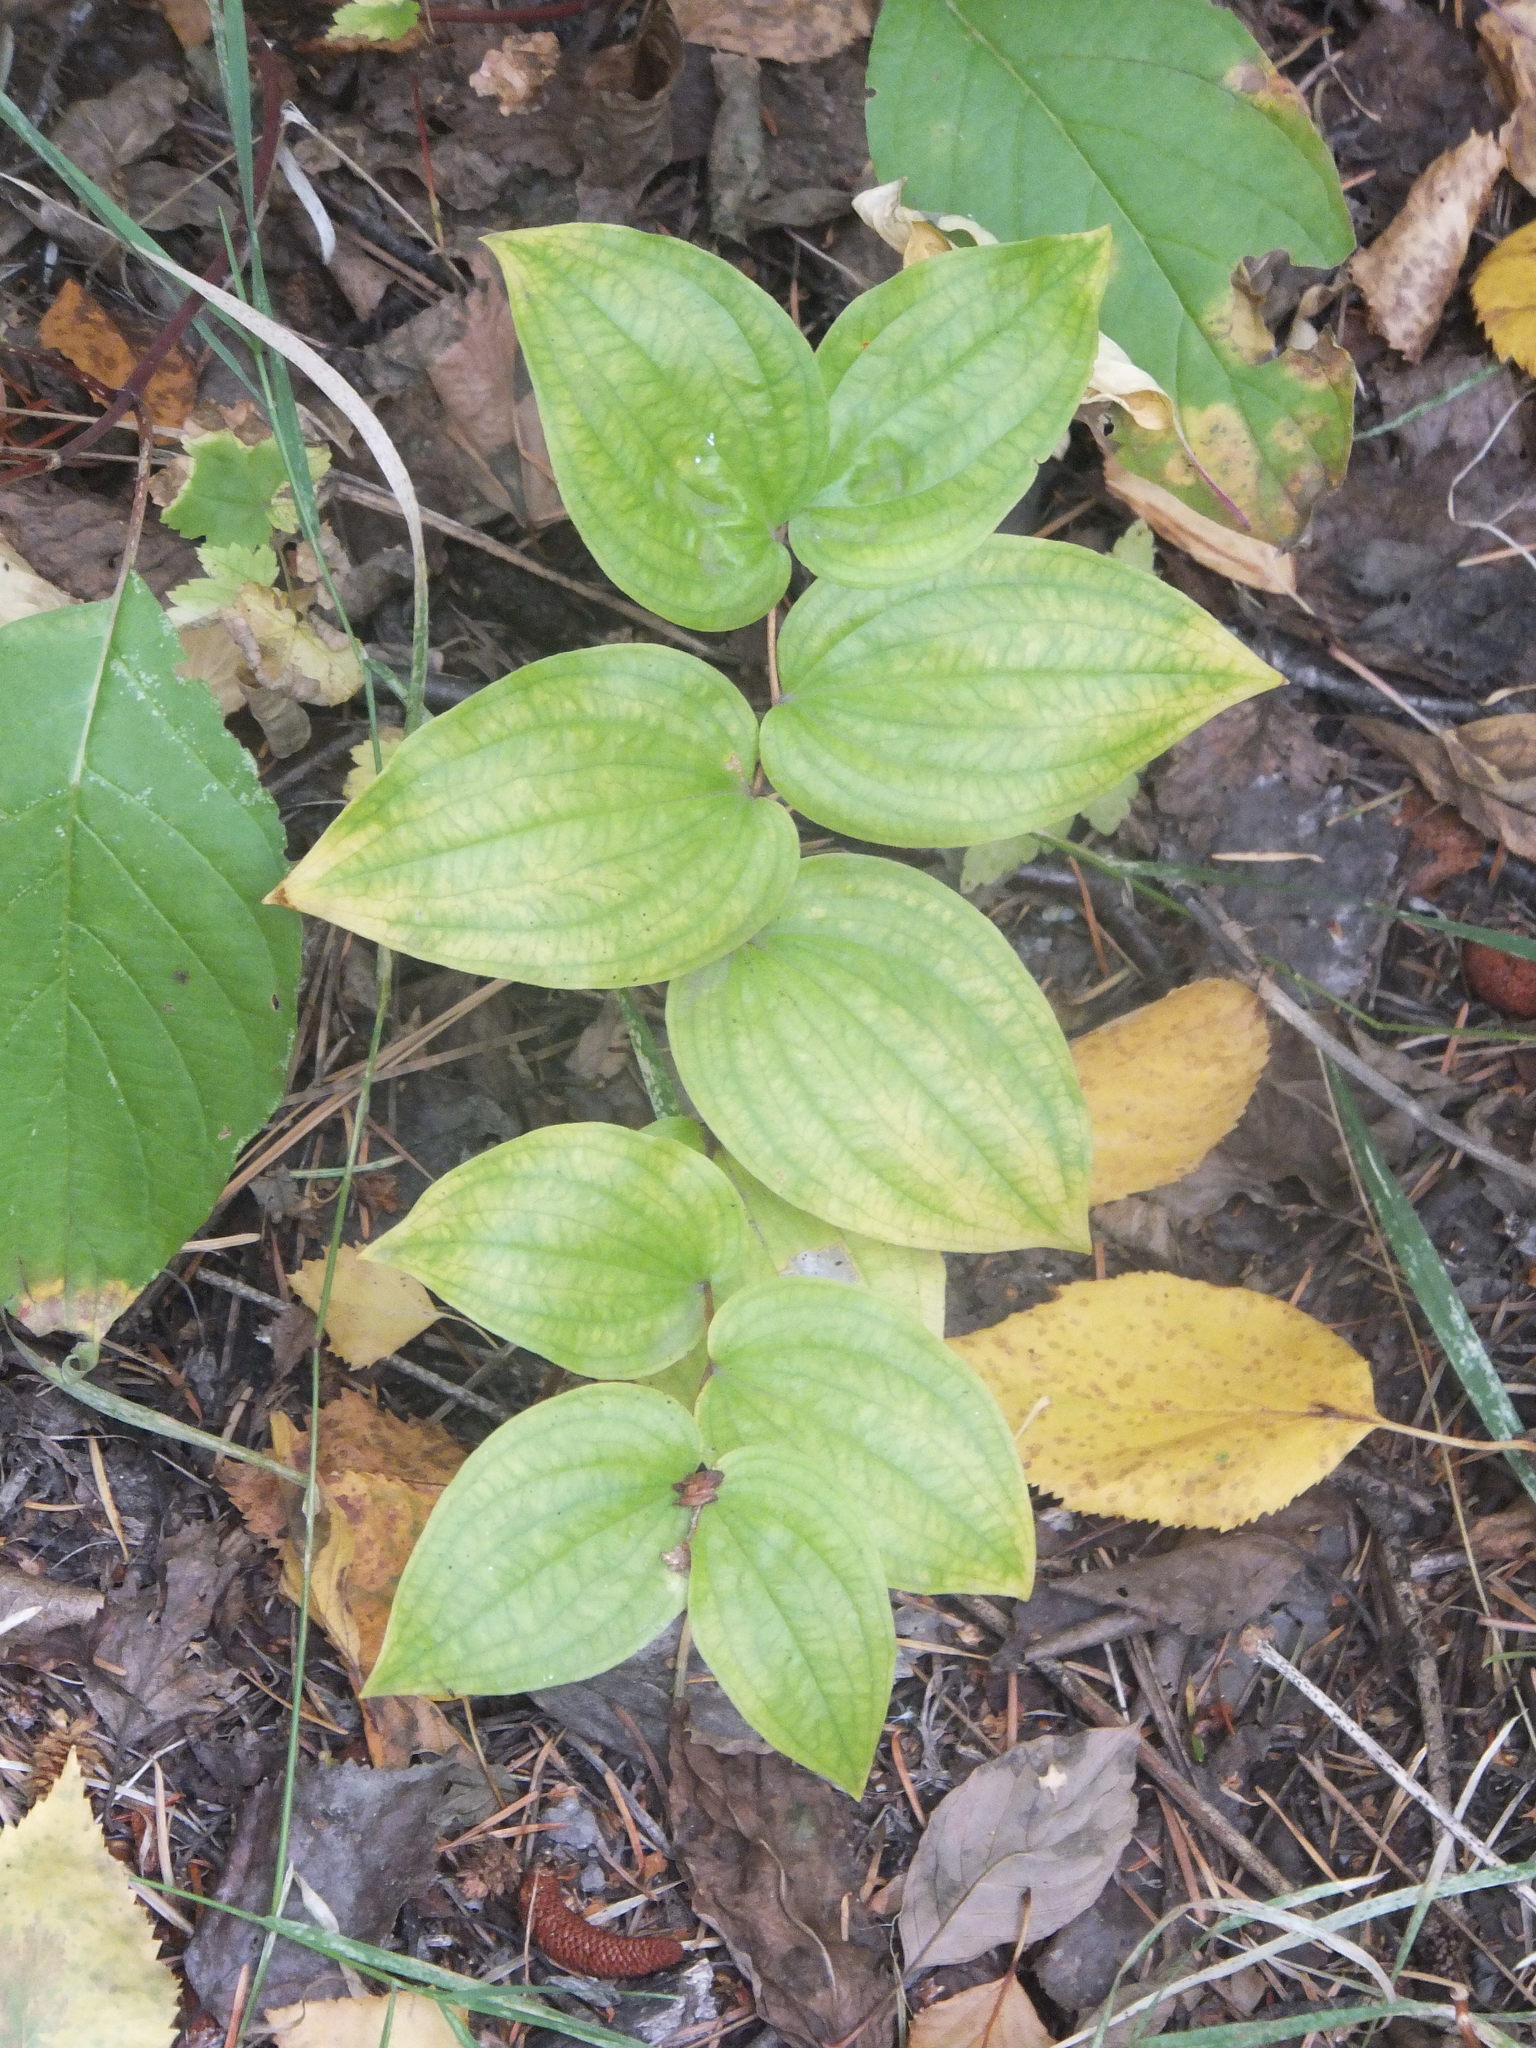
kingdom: Plantae
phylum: Tracheophyta
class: Liliopsida
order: Liliales
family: Liliaceae
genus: Prosartes
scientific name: Prosartes trachycarpa
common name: Rough-fruit fairy-bells
